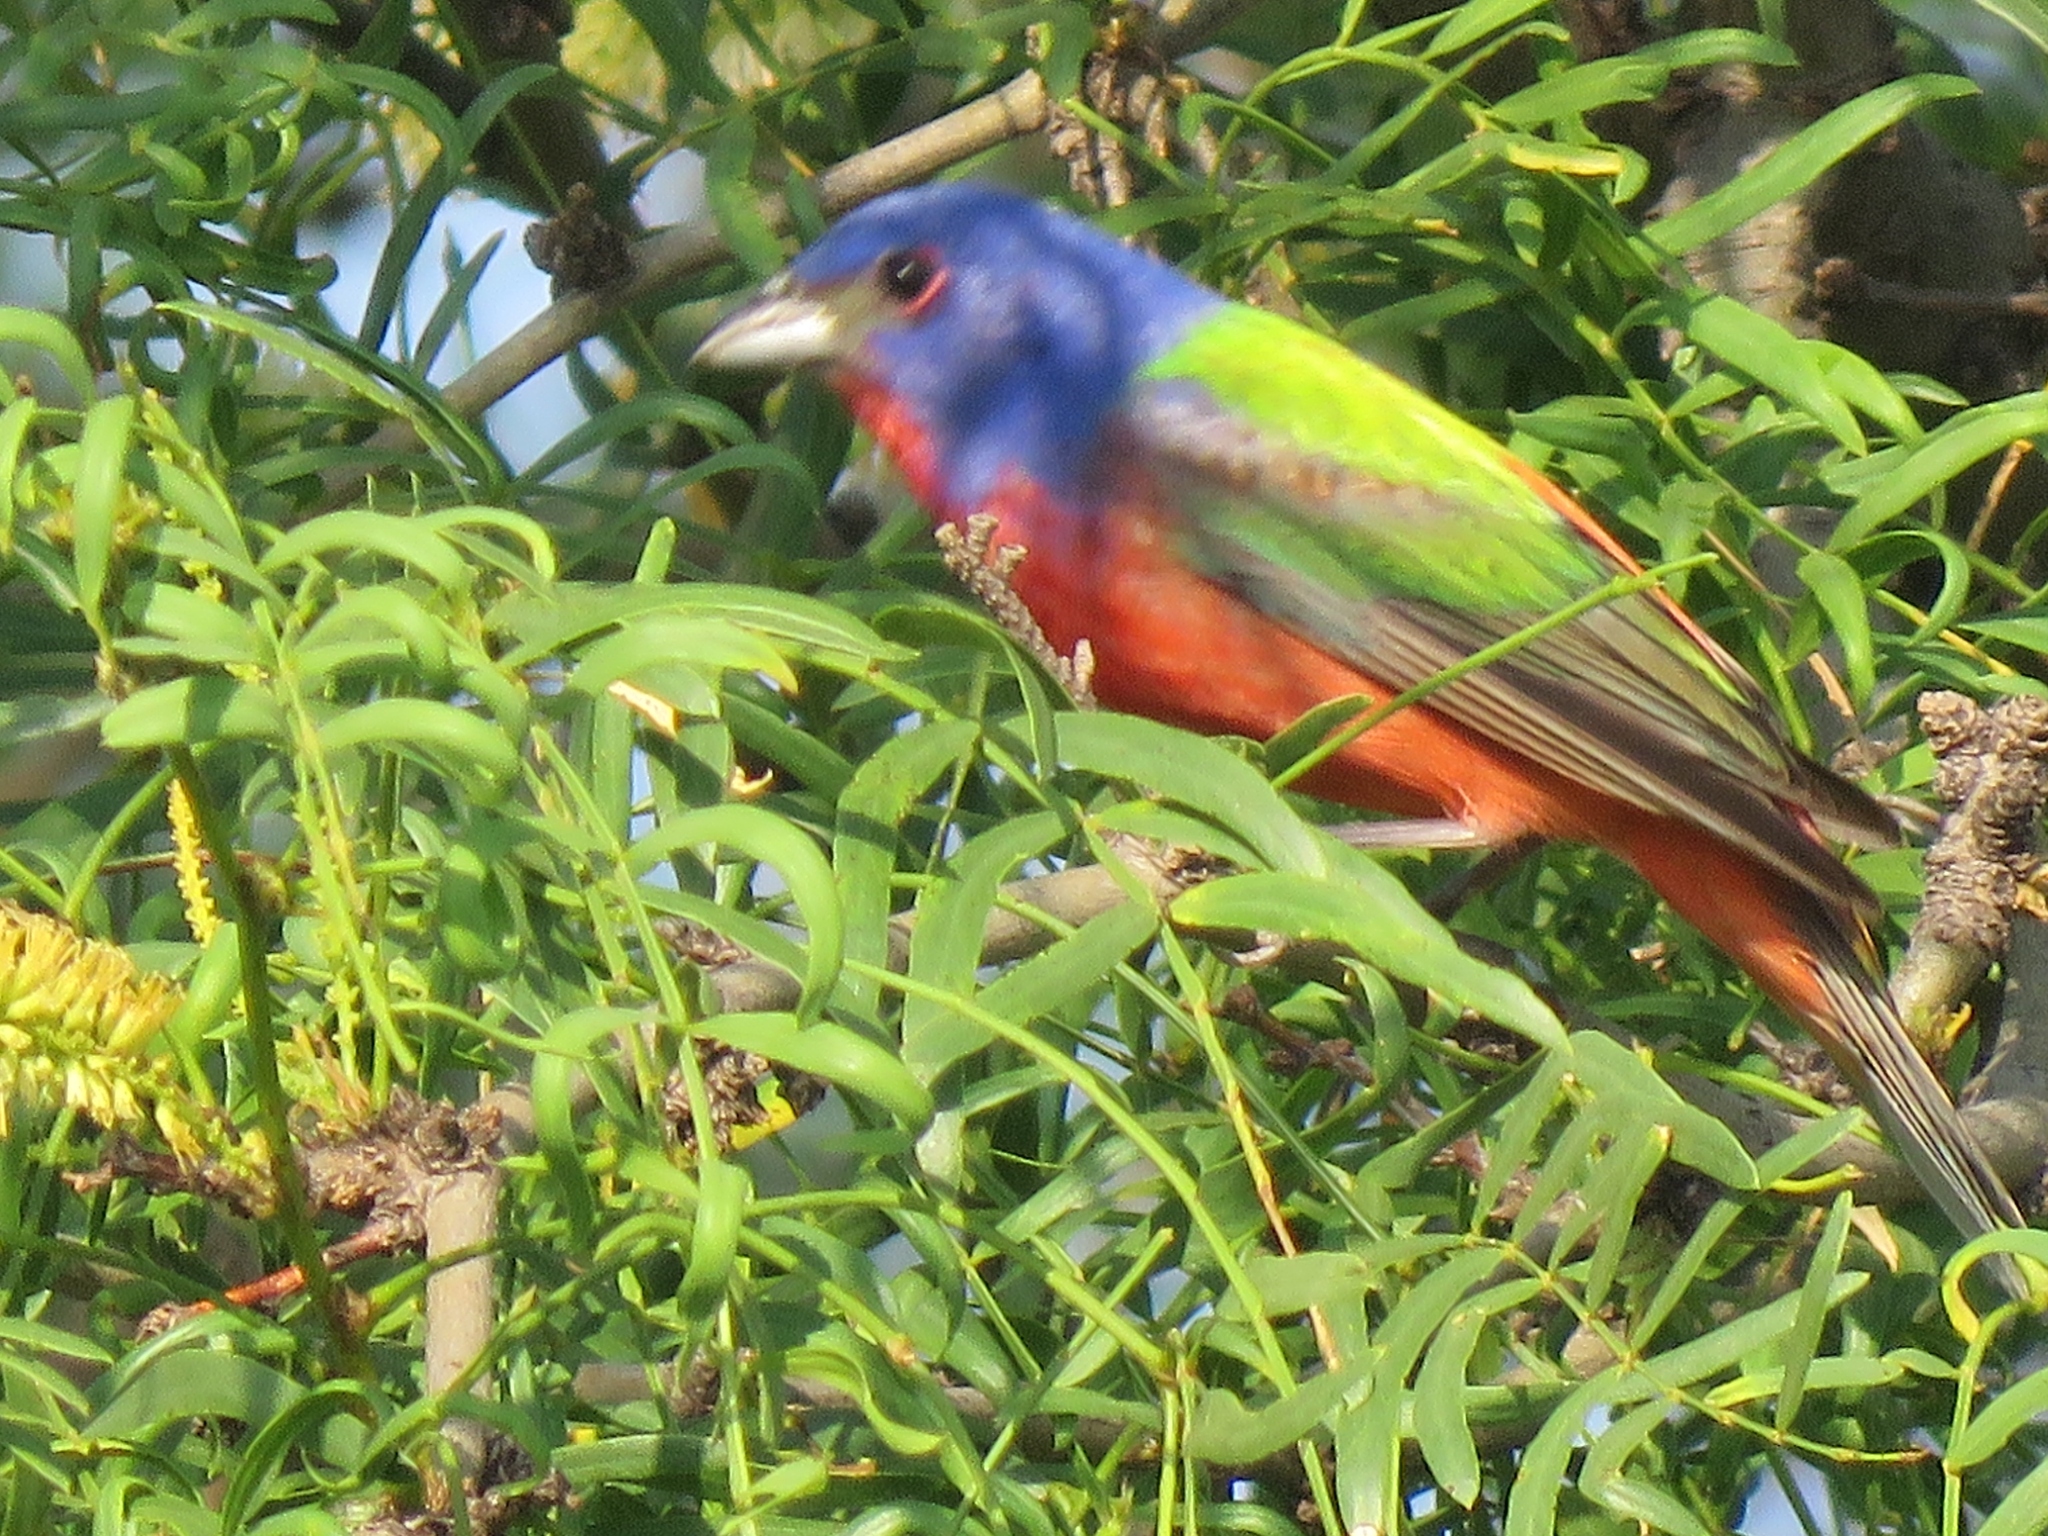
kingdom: Animalia
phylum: Chordata
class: Aves
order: Passeriformes
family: Cardinalidae
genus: Passerina
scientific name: Passerina ciris
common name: Painted bunting
